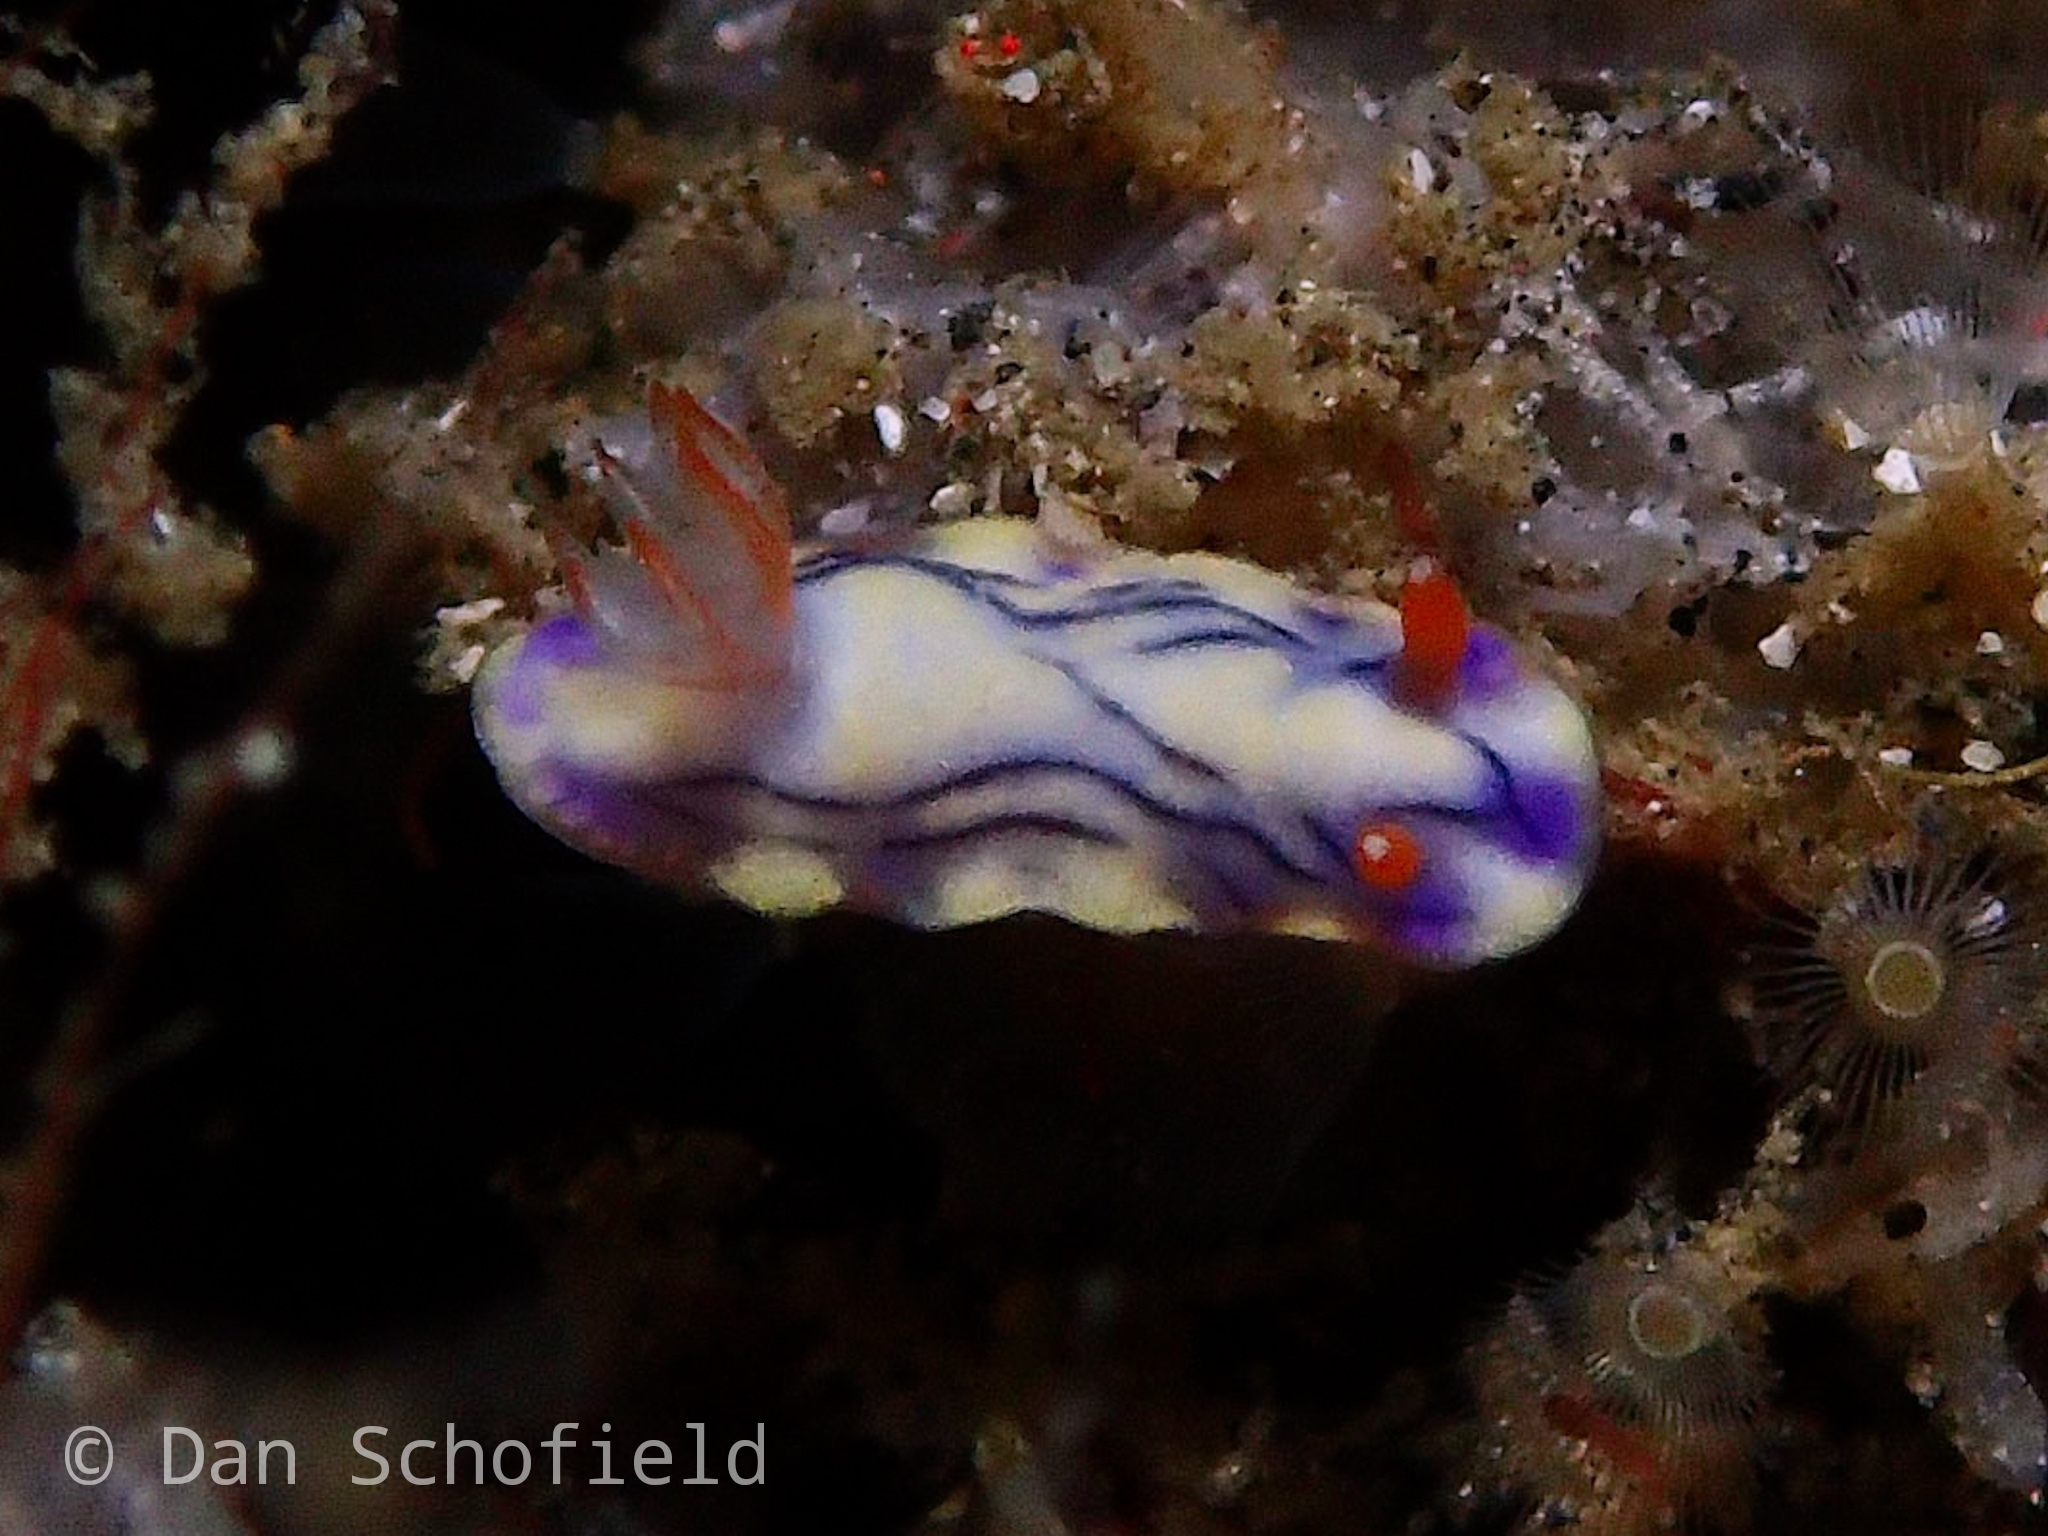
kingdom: Animalia
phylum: Mollusca
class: Gastropoda
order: Nudibranchia
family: Chromodorididae
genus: Hypselodoris
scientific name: Hypselodoris zephyra
